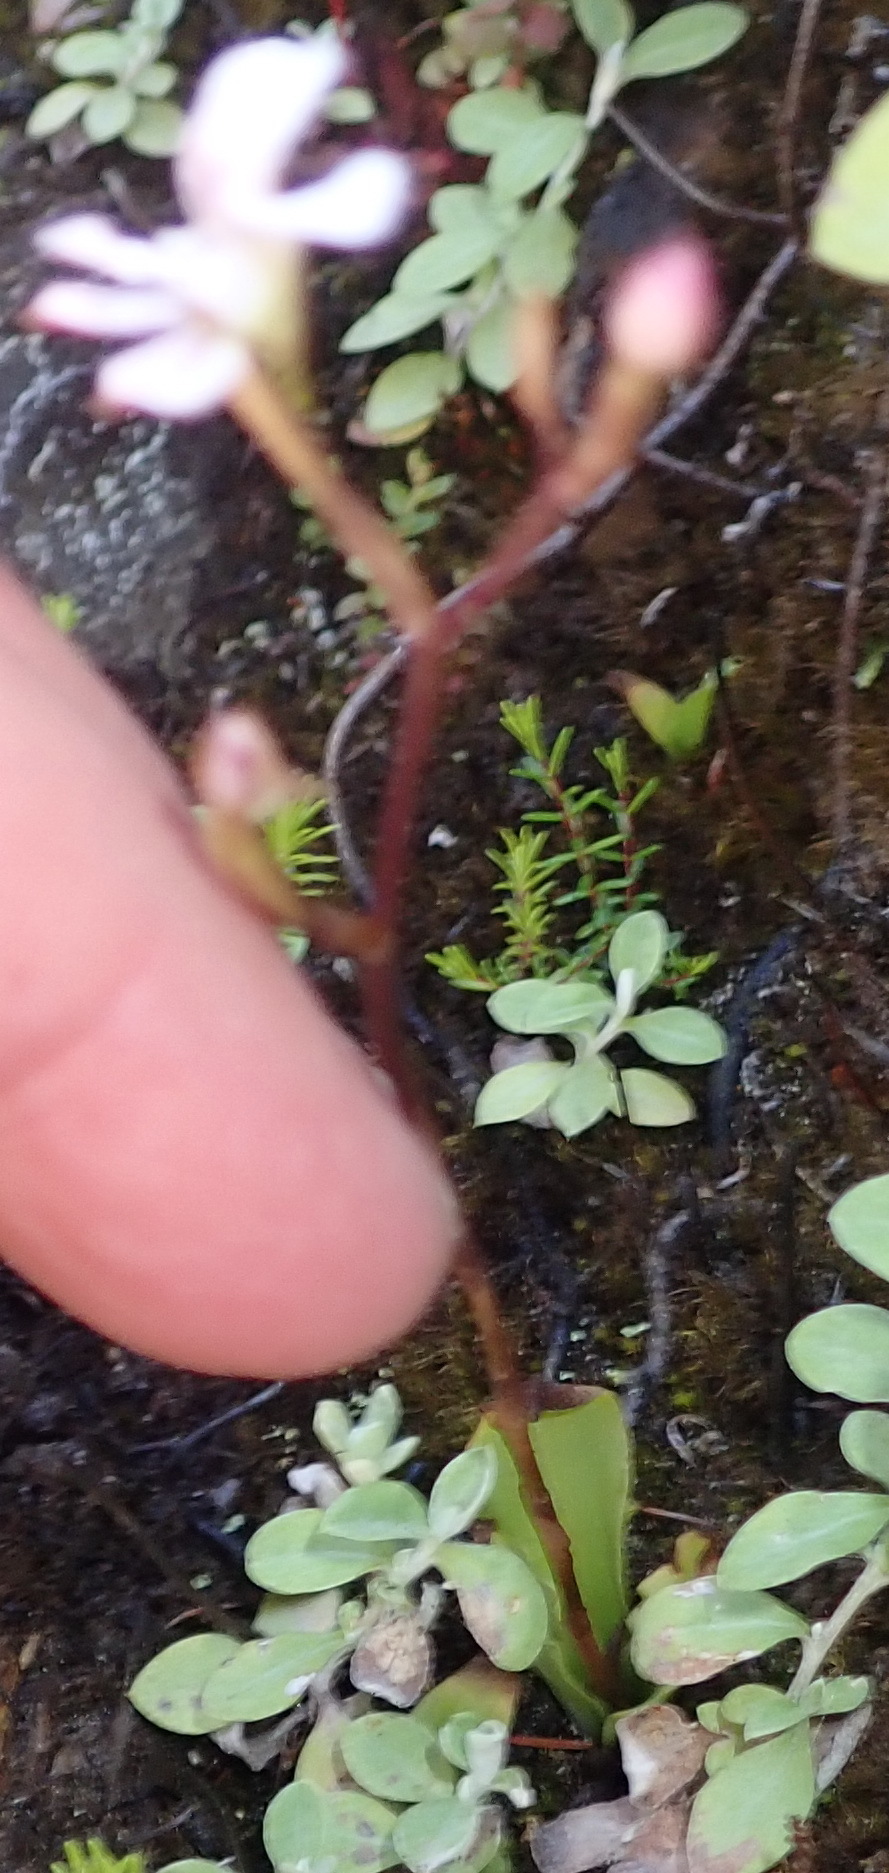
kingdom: Plantae
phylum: Tracheophyta
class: Liliopsida
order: Asparagales
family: Orchidaceae
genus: Disa
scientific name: Disa sagittalis
